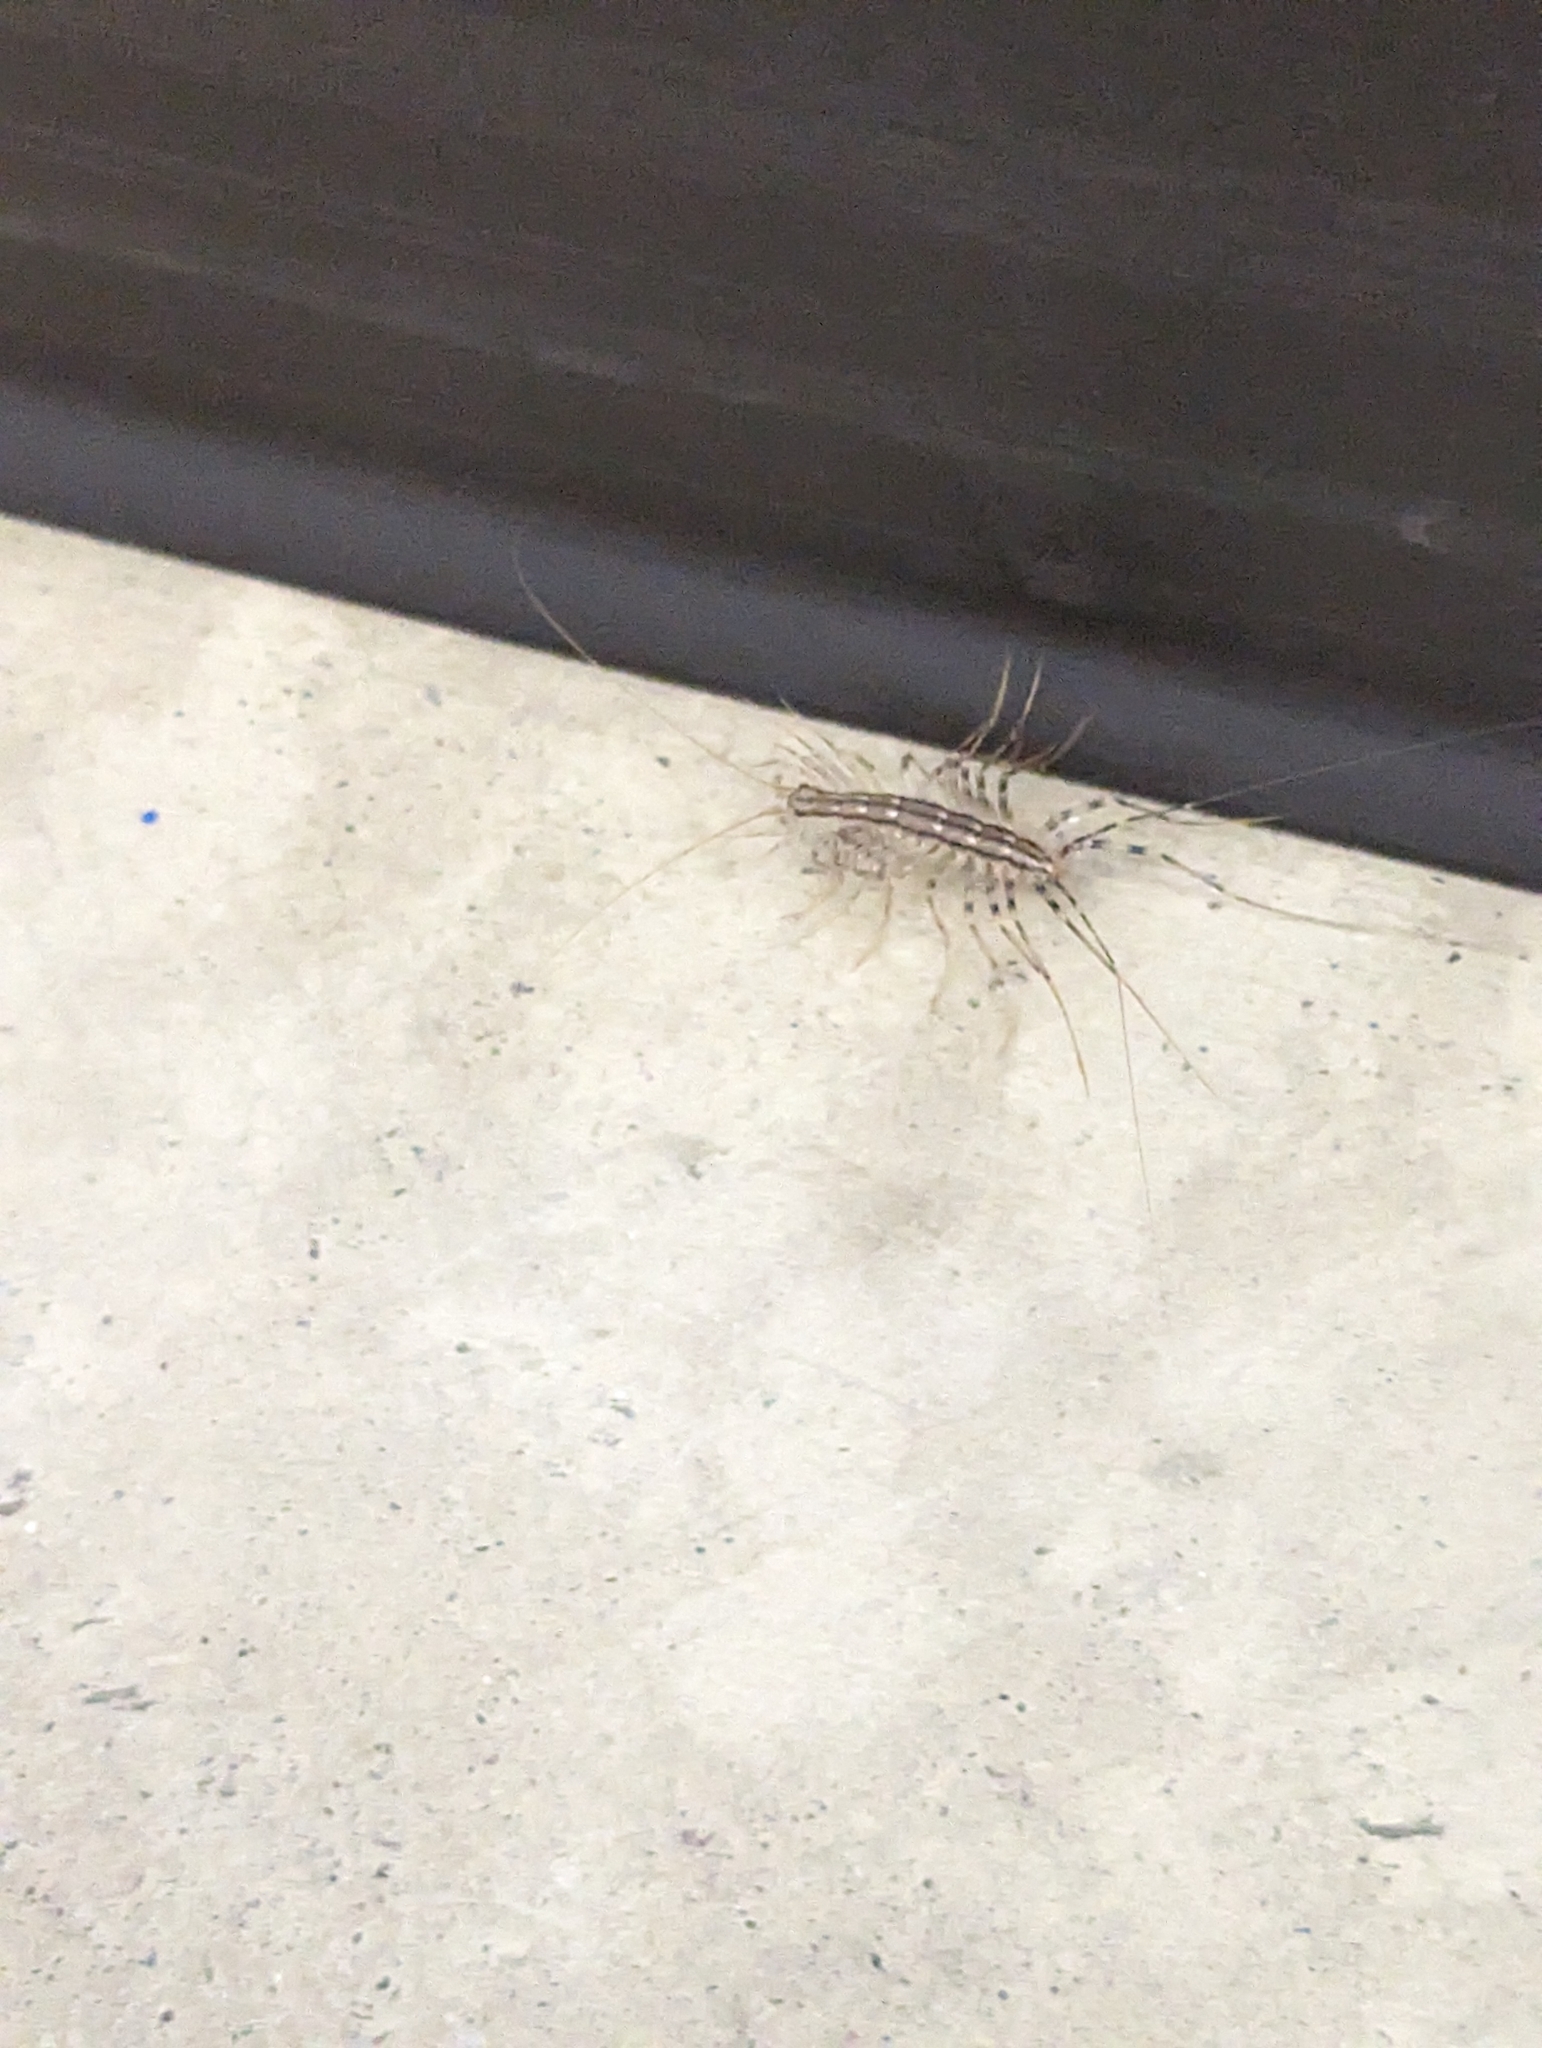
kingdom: Animalia
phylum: Arthropoda
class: Chilopoda
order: Scutigeromorpha
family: Scutigeridae
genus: Scutigera
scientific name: Scutigera coleoptrata
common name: House centipede
